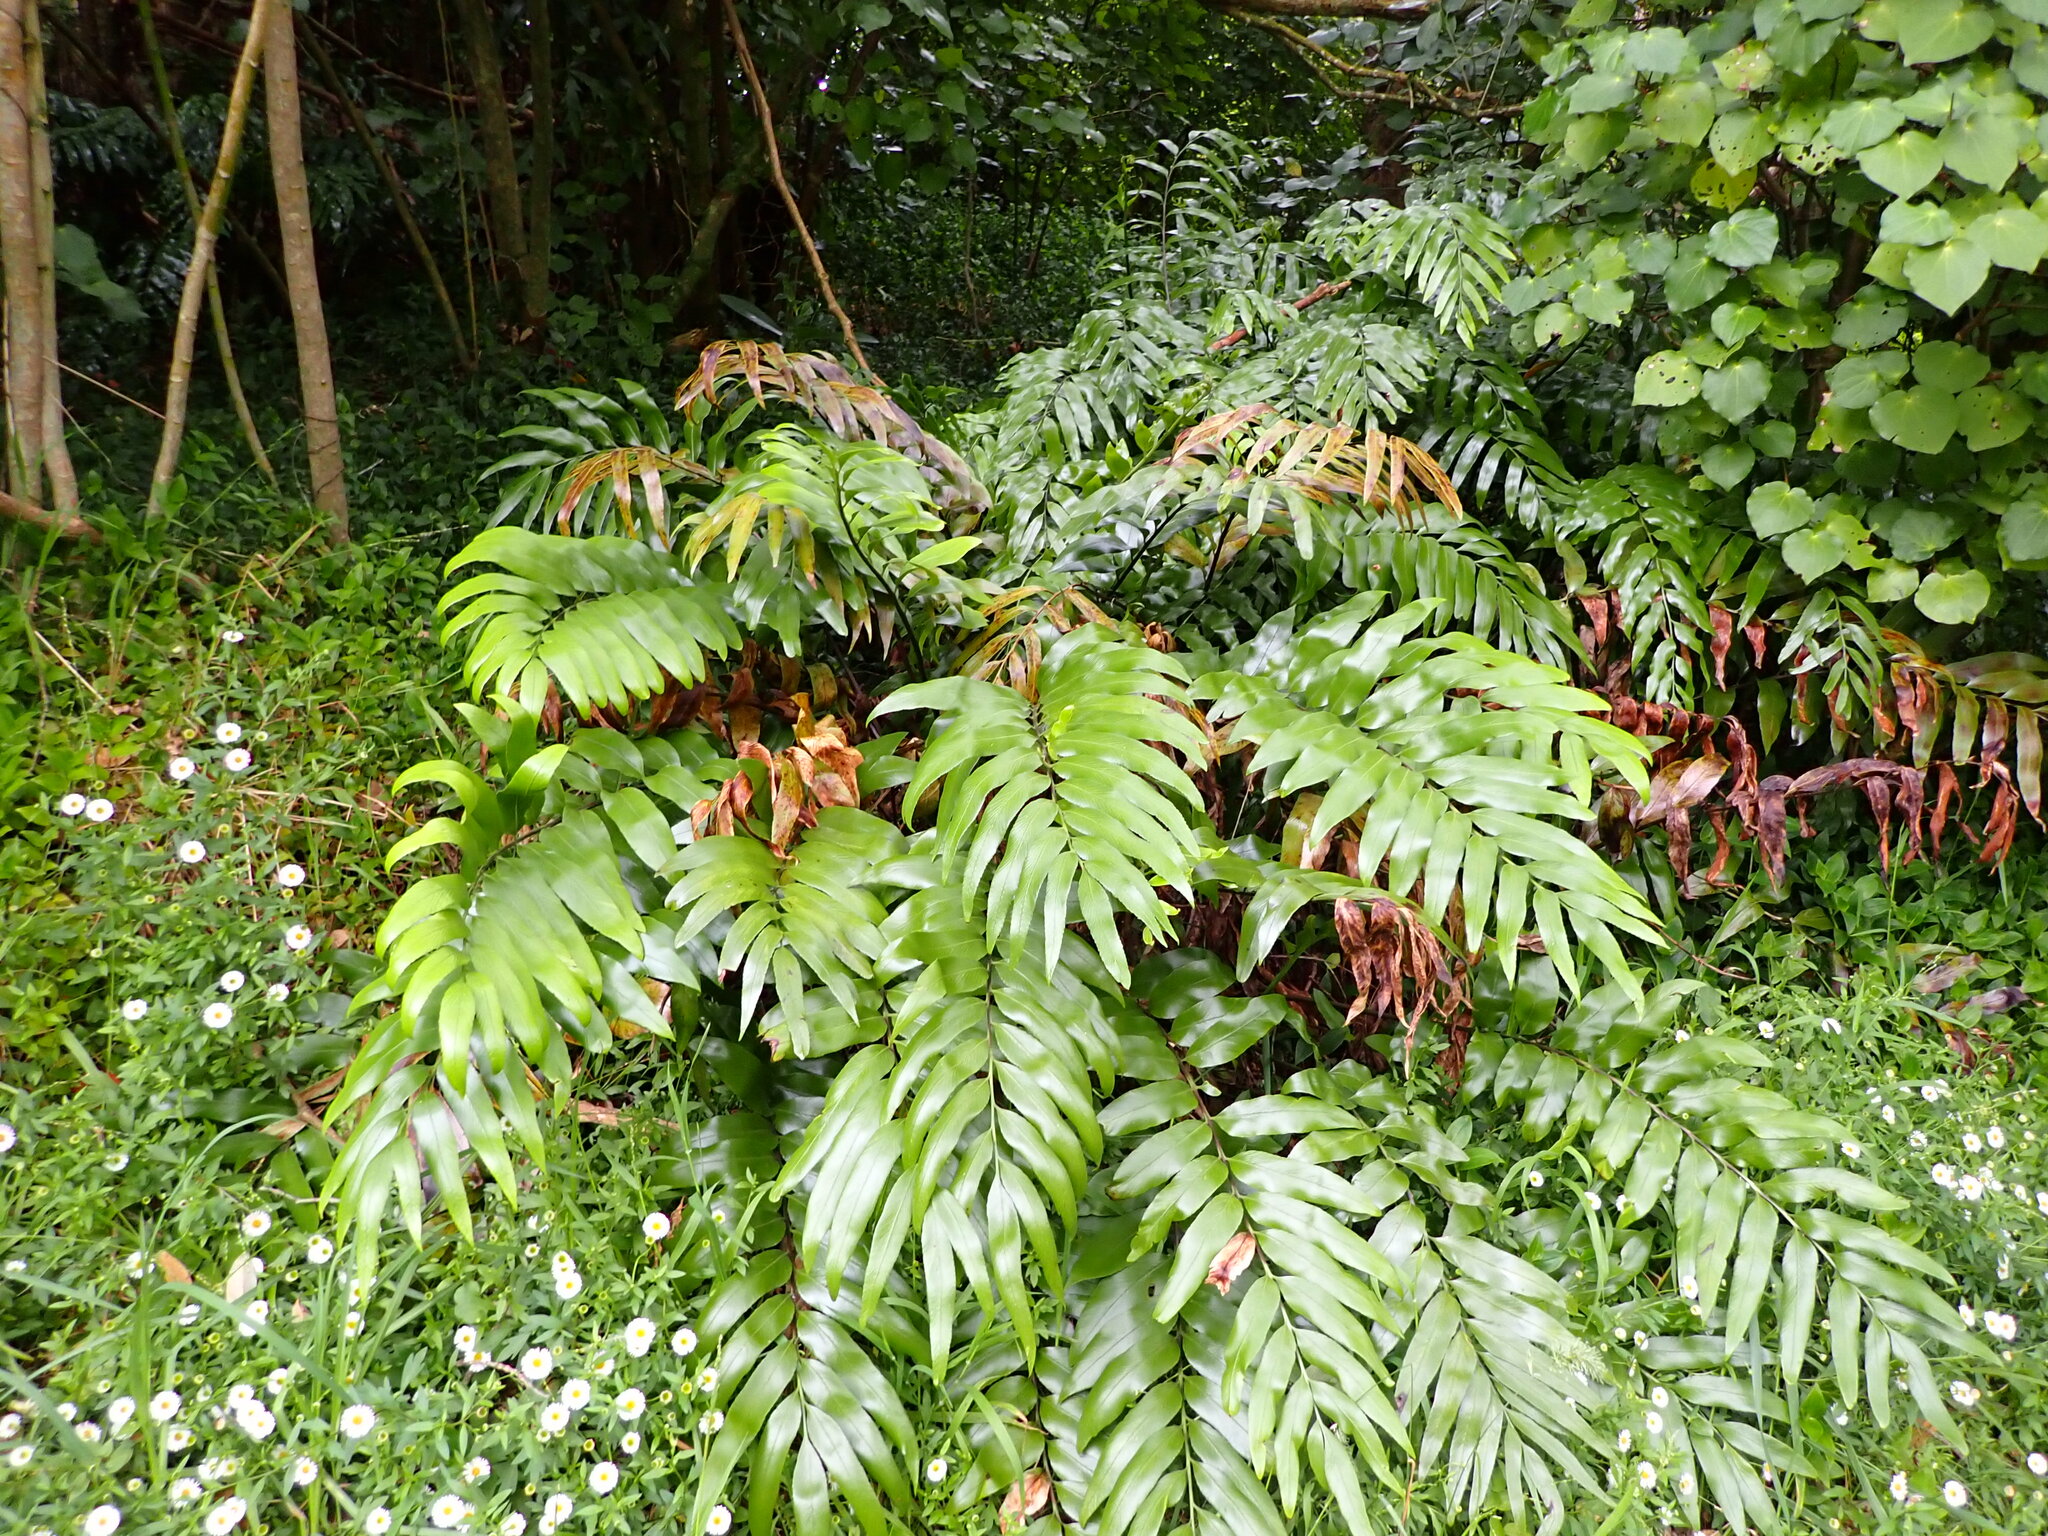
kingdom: Plantae
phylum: Tracheophyta
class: Polypodiopsida
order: Polypodiales
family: Aspleniaceae
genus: Asplenium
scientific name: Asplenium oblongifolium
